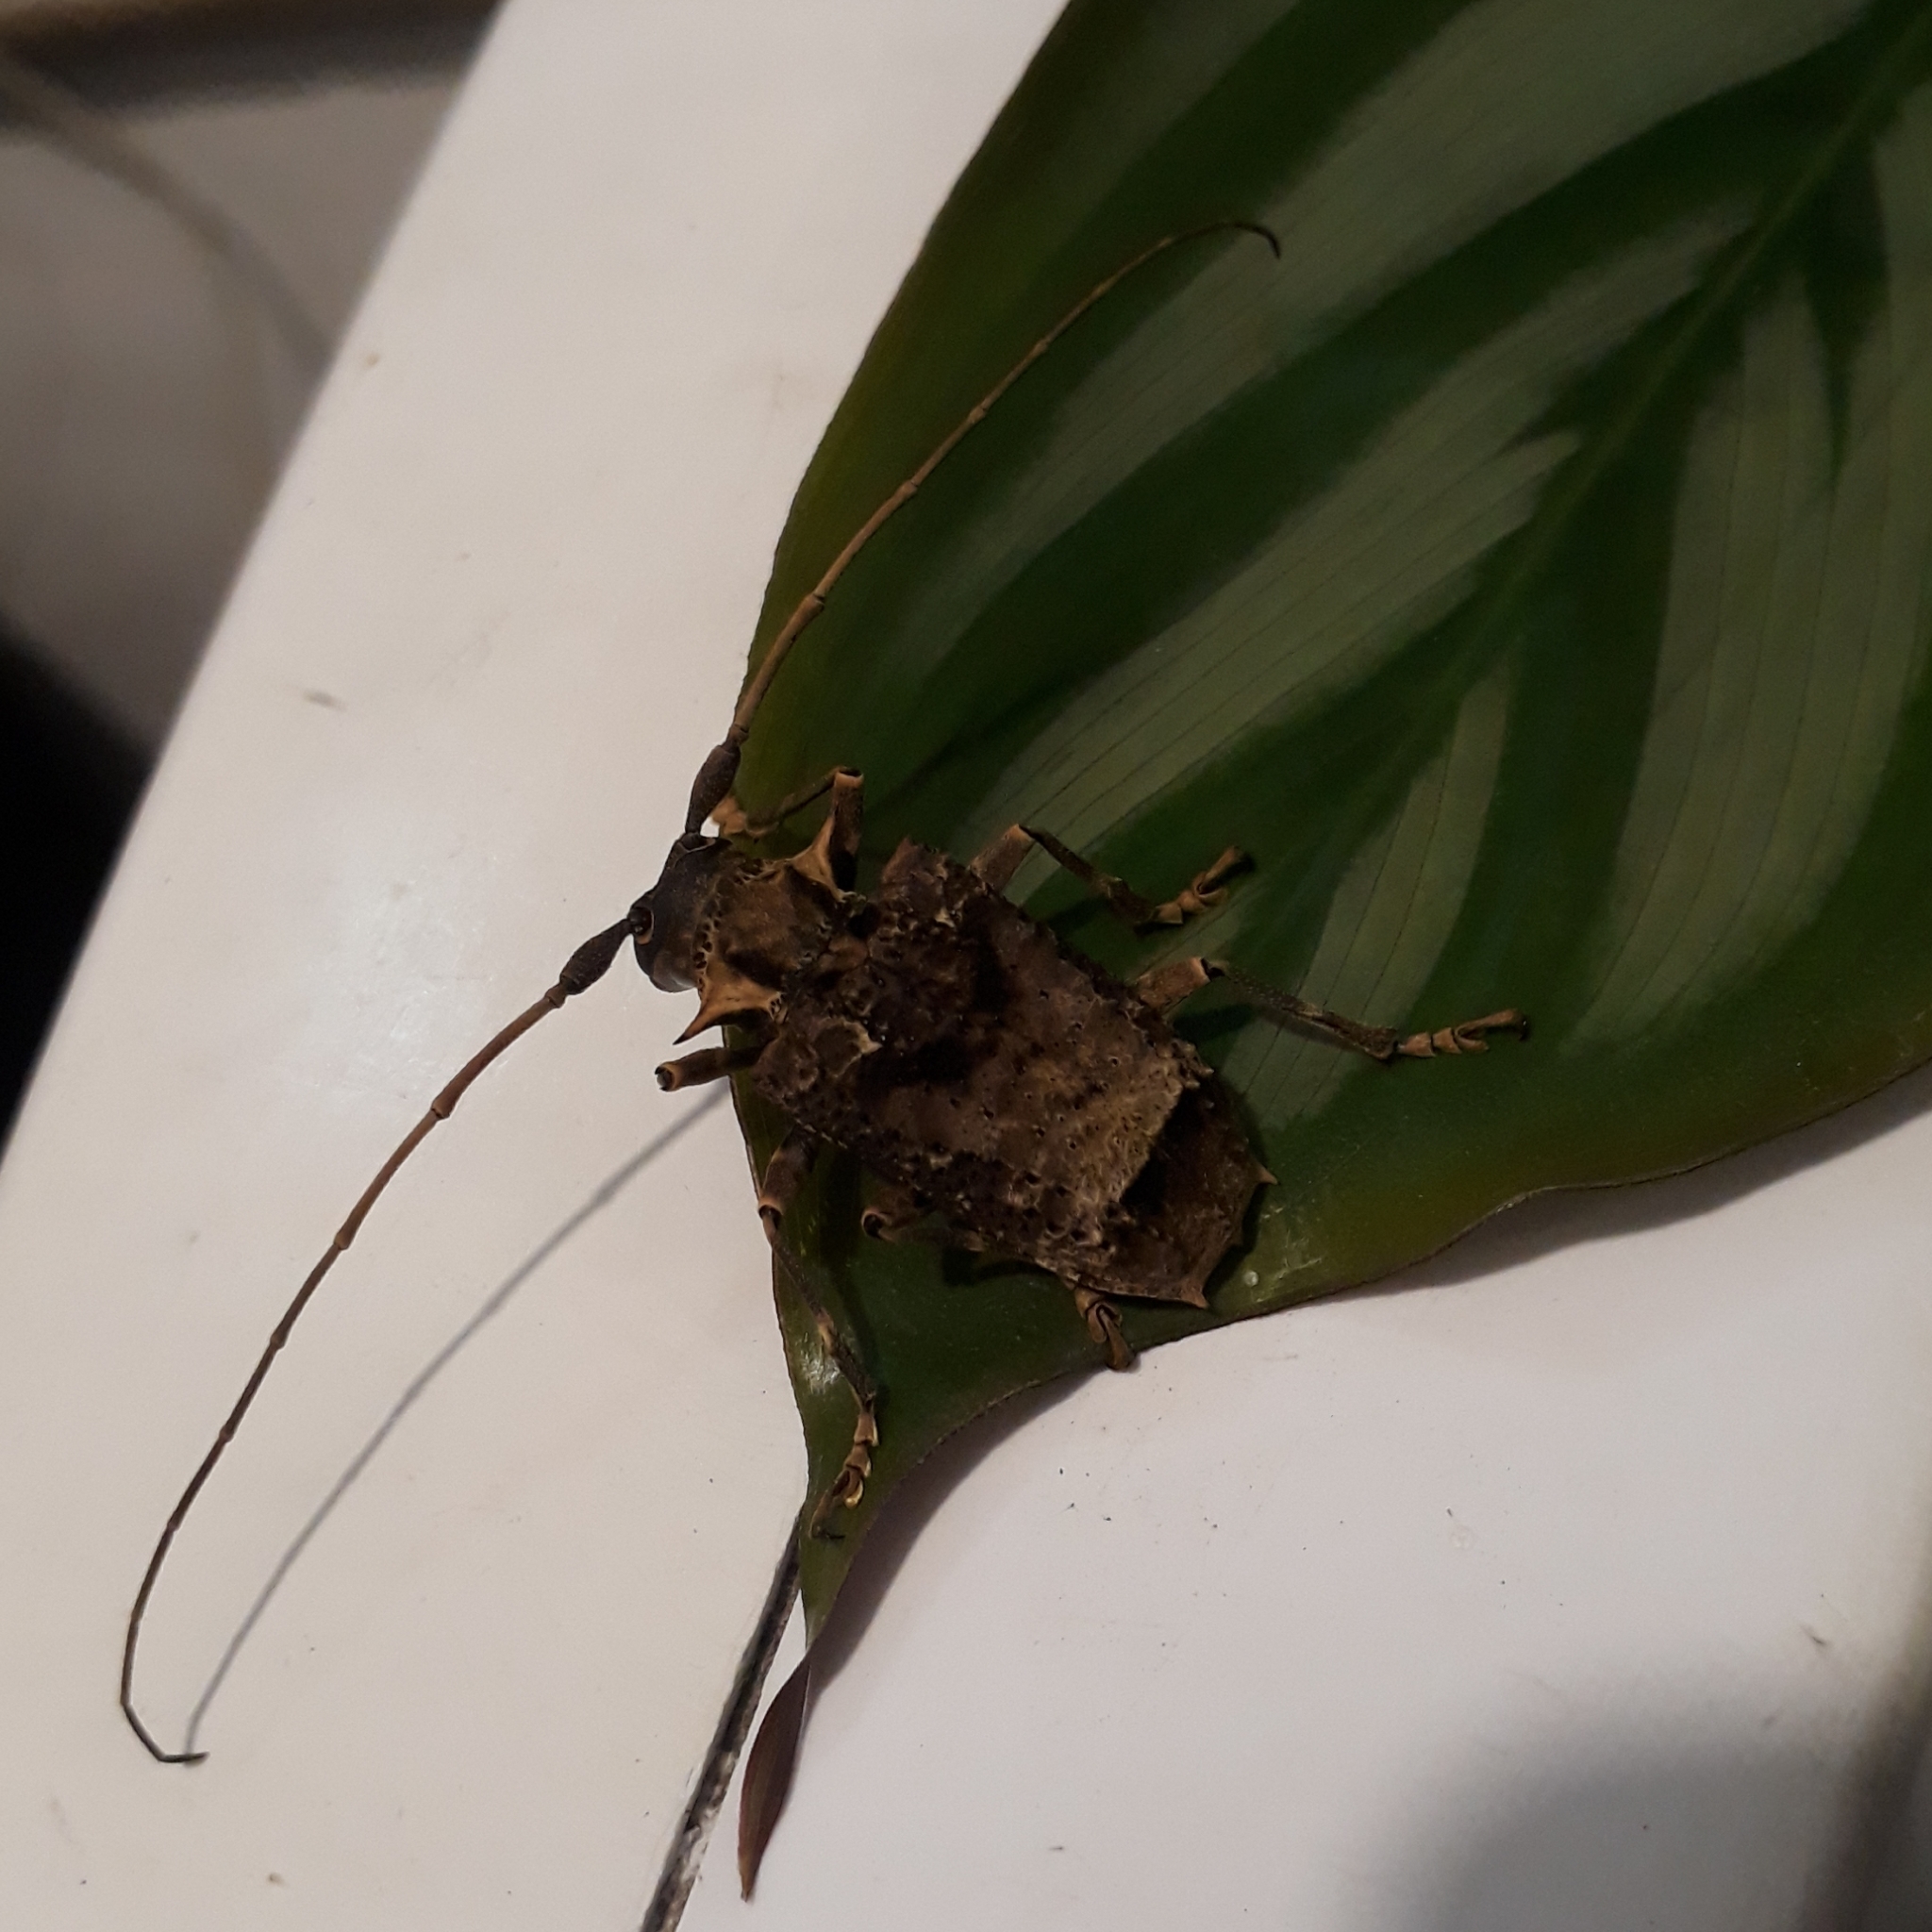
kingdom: Animalia
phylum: Arthropoda
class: Insecta
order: Coleoptera
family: Cerambycidae
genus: Polyrhaphis
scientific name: Polyrhaphis spinipennis
